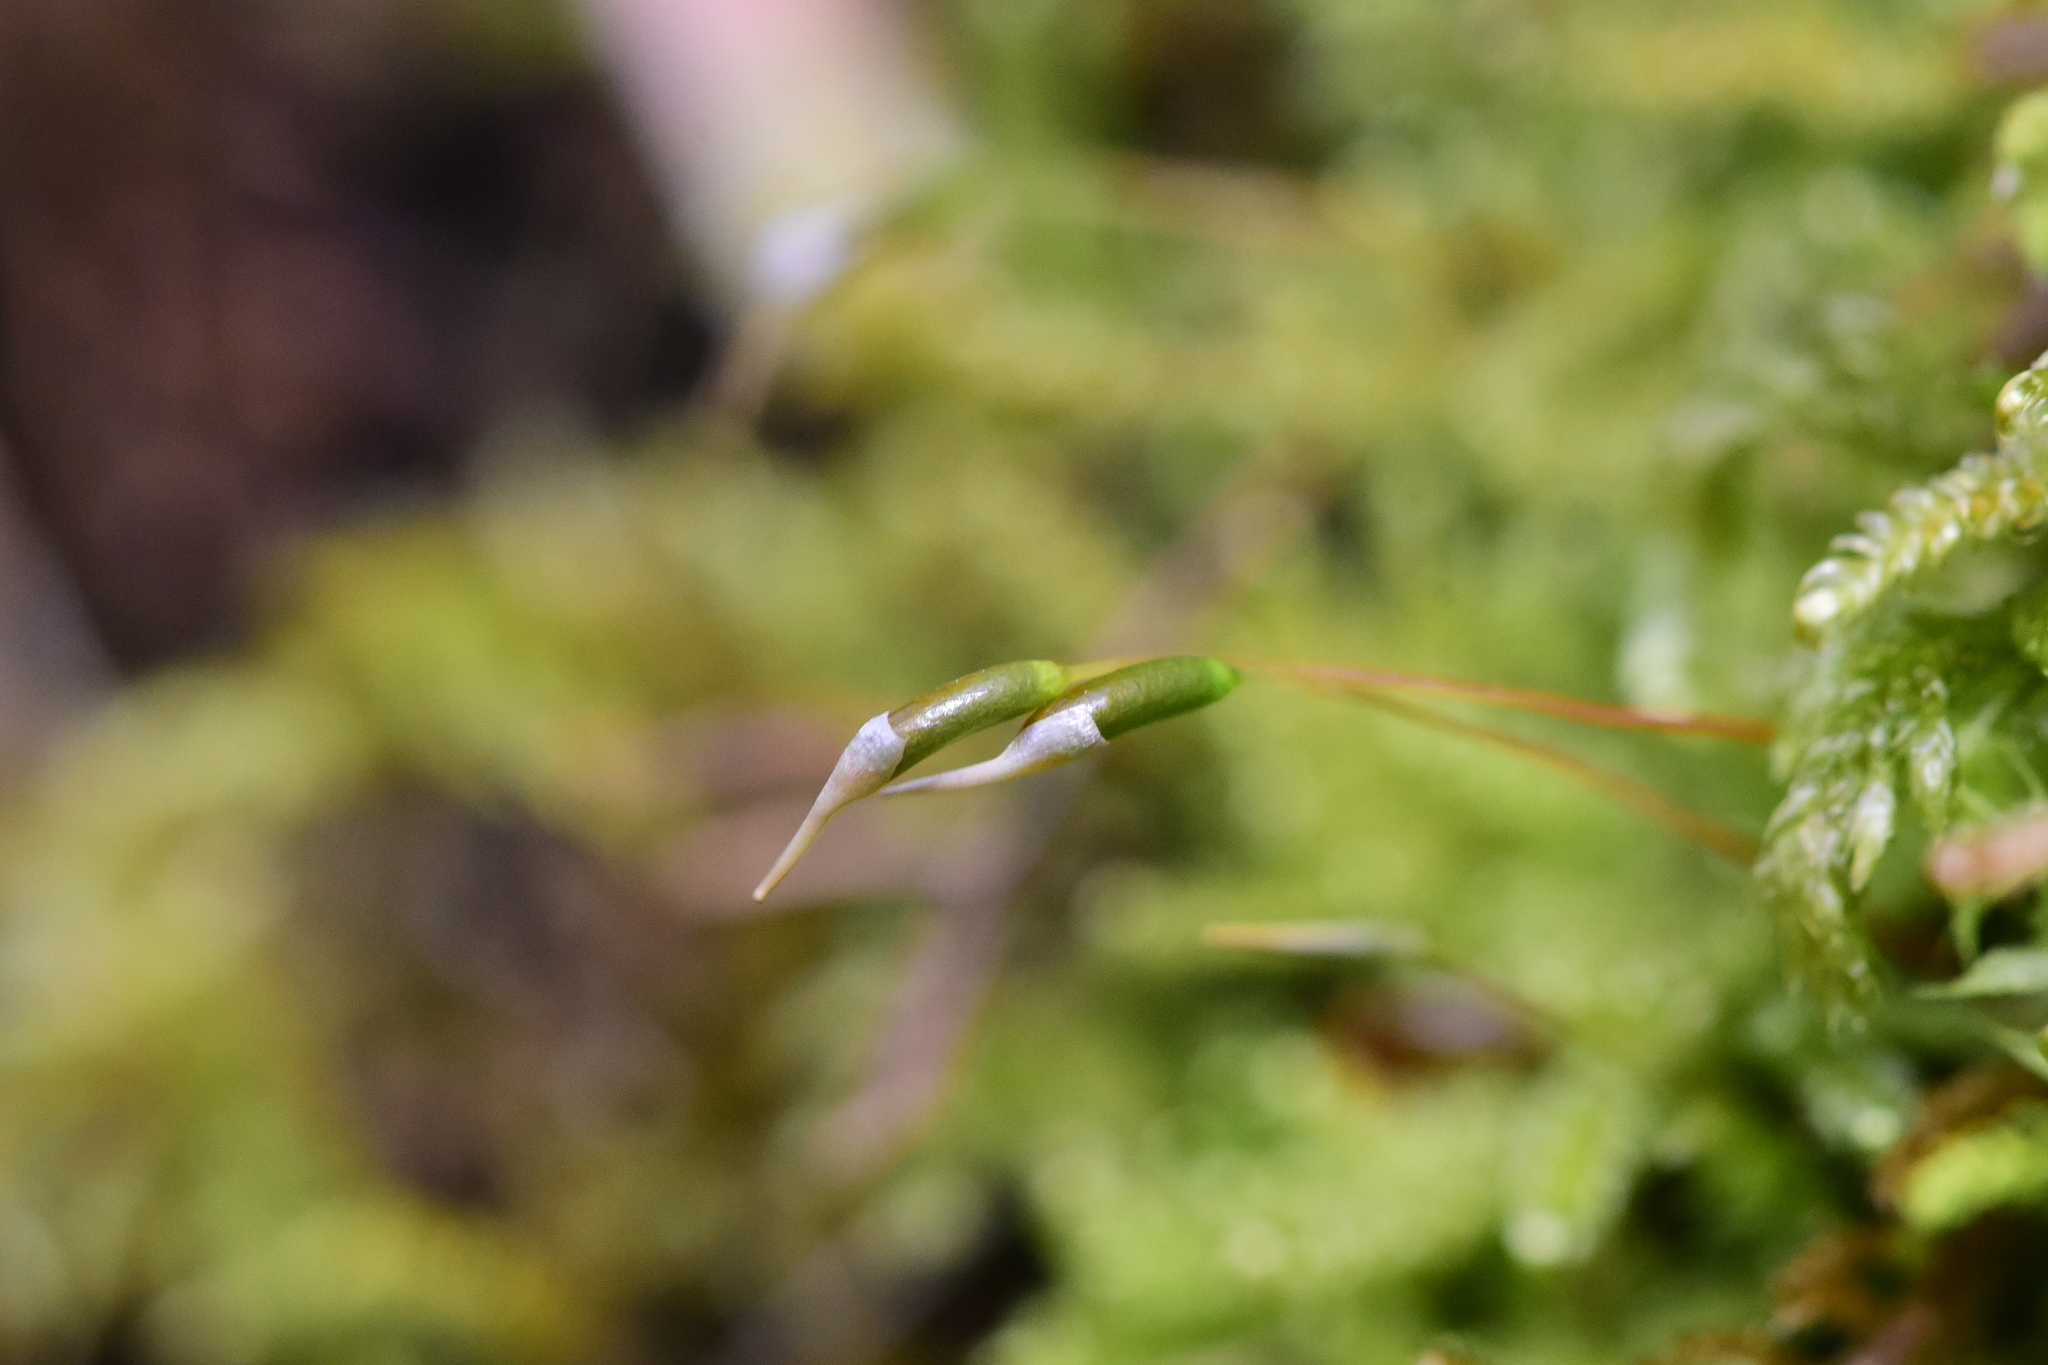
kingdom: Plantae
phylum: Bryophyta
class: Bryopsida
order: Hypnales
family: Stereodontaceae
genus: Stereodon
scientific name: Stereodon subimponens
